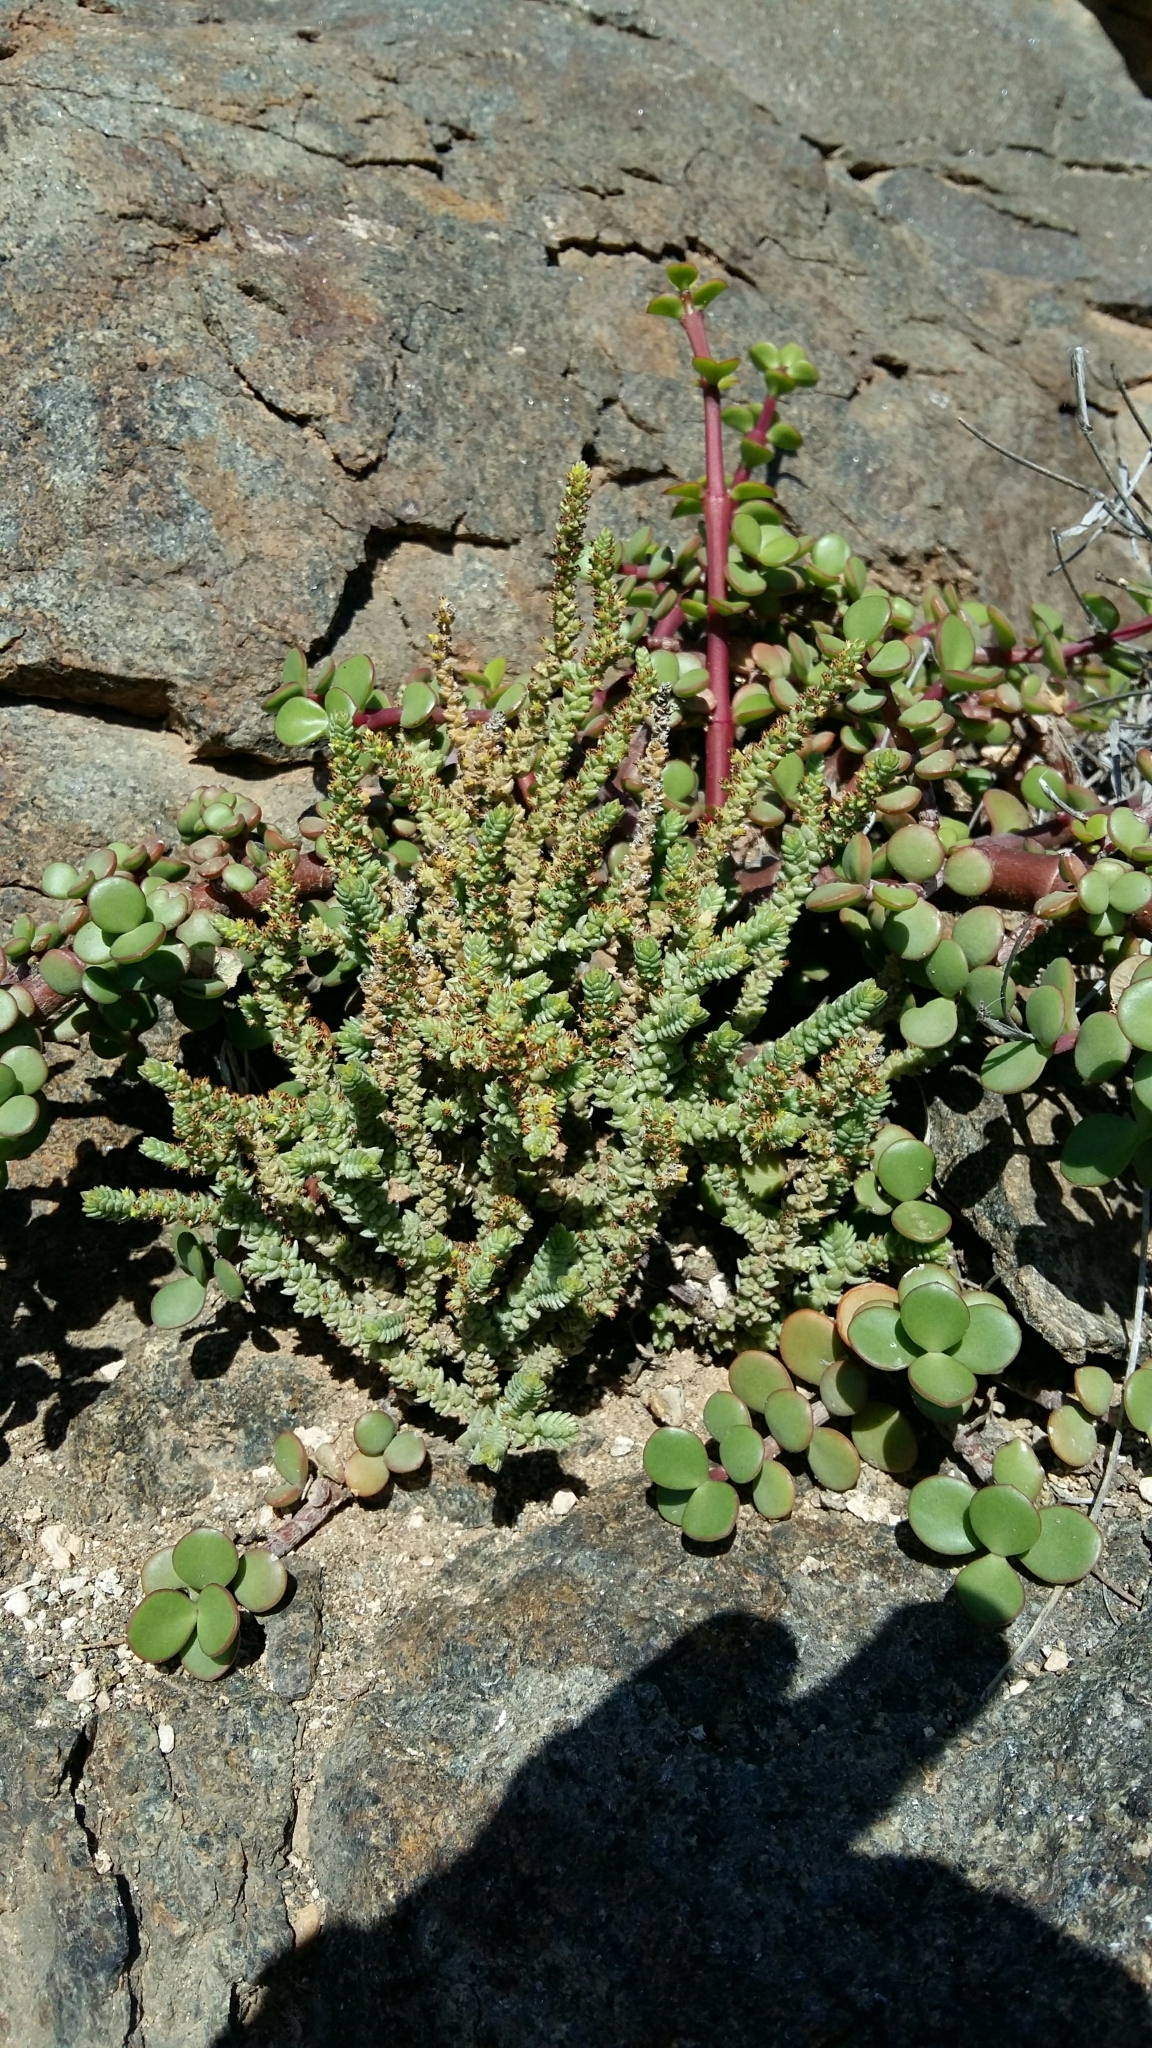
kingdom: Plantae
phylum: Tracheophyta
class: Magnoliopsida
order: Saxifragales
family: Crassulaceae
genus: Crassula
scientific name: Crassula muscosa
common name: Toy-cypress
